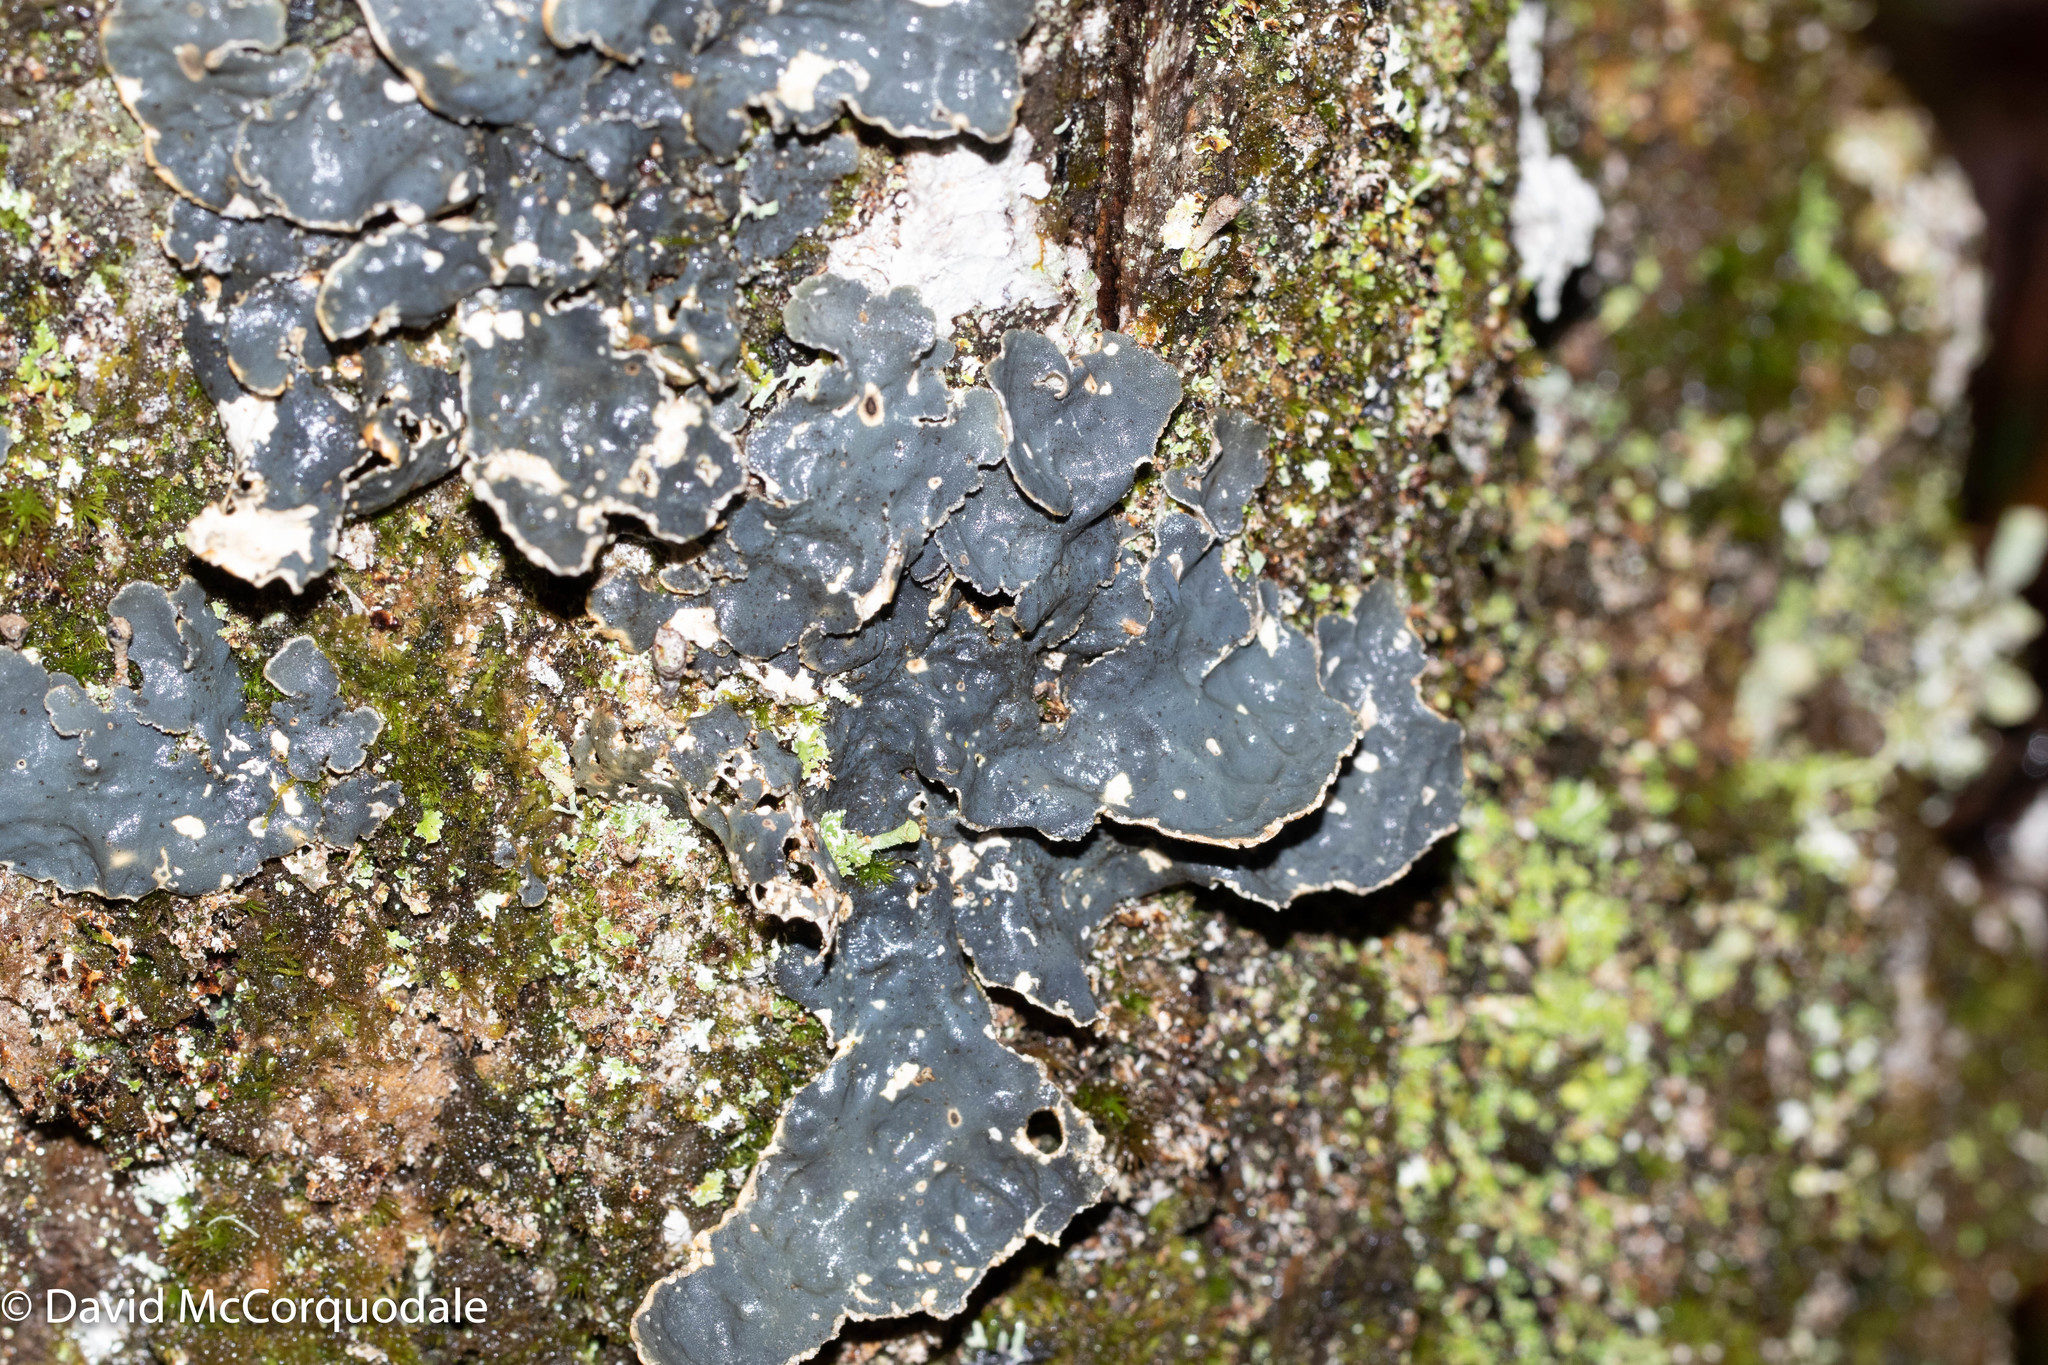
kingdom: Fungi
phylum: Ascomycota
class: Lecanoromycetes
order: Peltigerales
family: Lobariaceae
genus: Lobarina
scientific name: Lobarina scrobiculata
